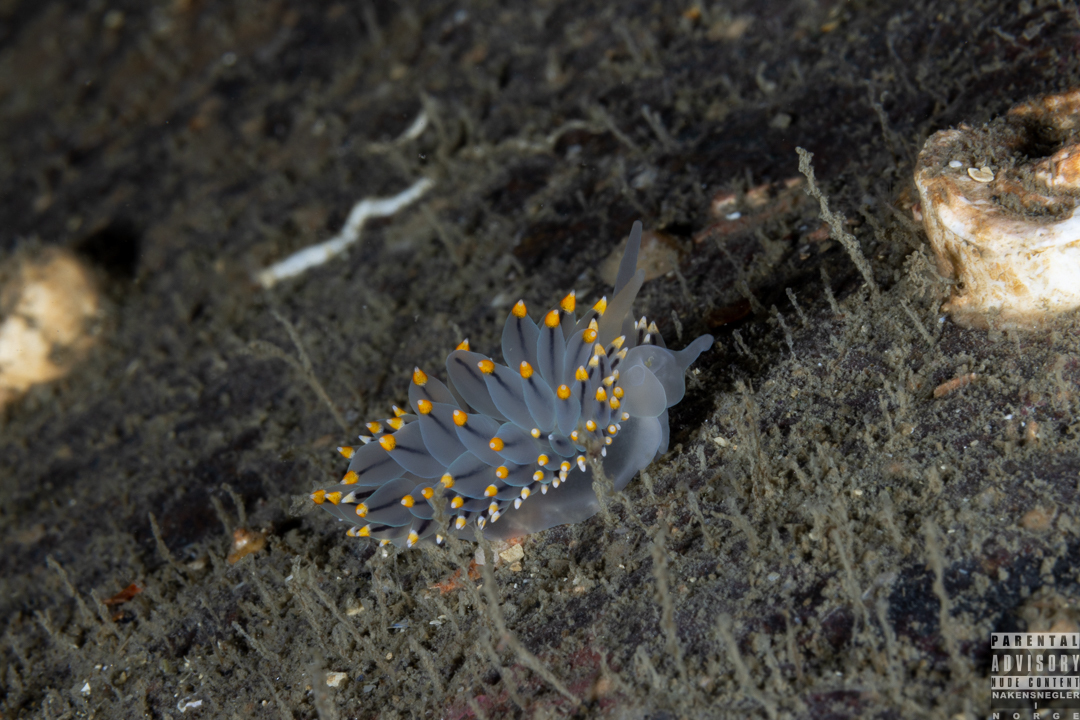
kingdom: Animalia
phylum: Mollusca
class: Gastropoda
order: Nudibranchia
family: Eubranchidae
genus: Eubranchus
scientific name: Eubranchus tricolor
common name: Painted balloon aeolis
